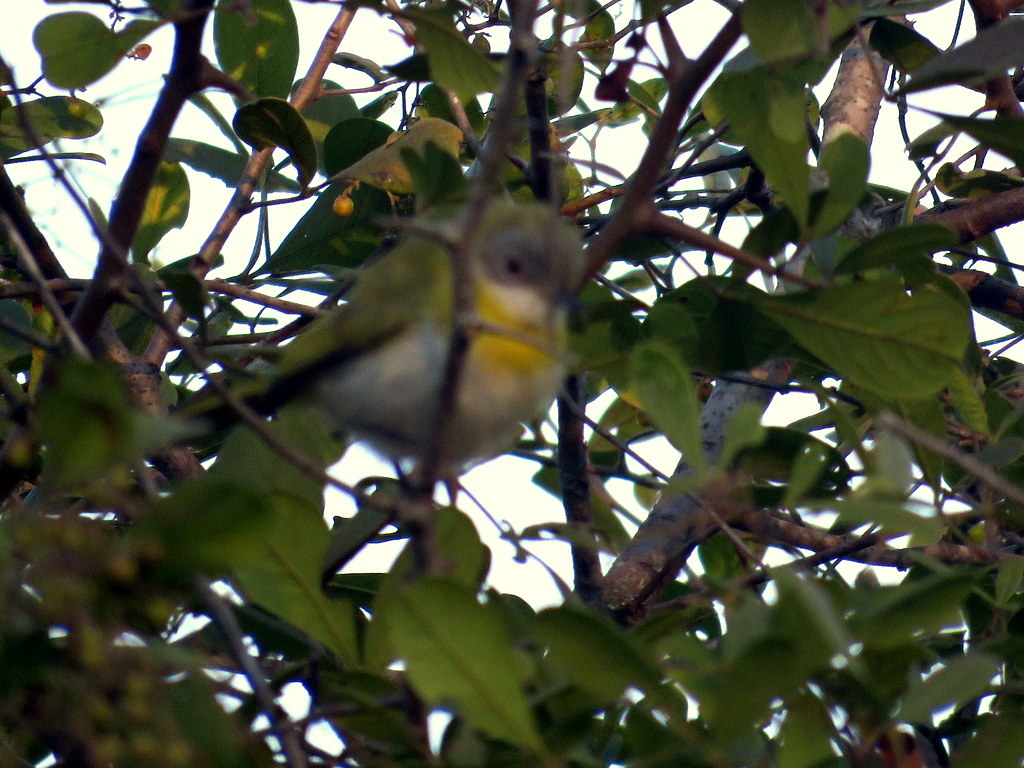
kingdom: Animalia
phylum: Chordata
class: Aves
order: Passeriformes
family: Cisticolidae
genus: Apalis
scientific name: Apalis flavida
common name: Yellow-breasted apalis
